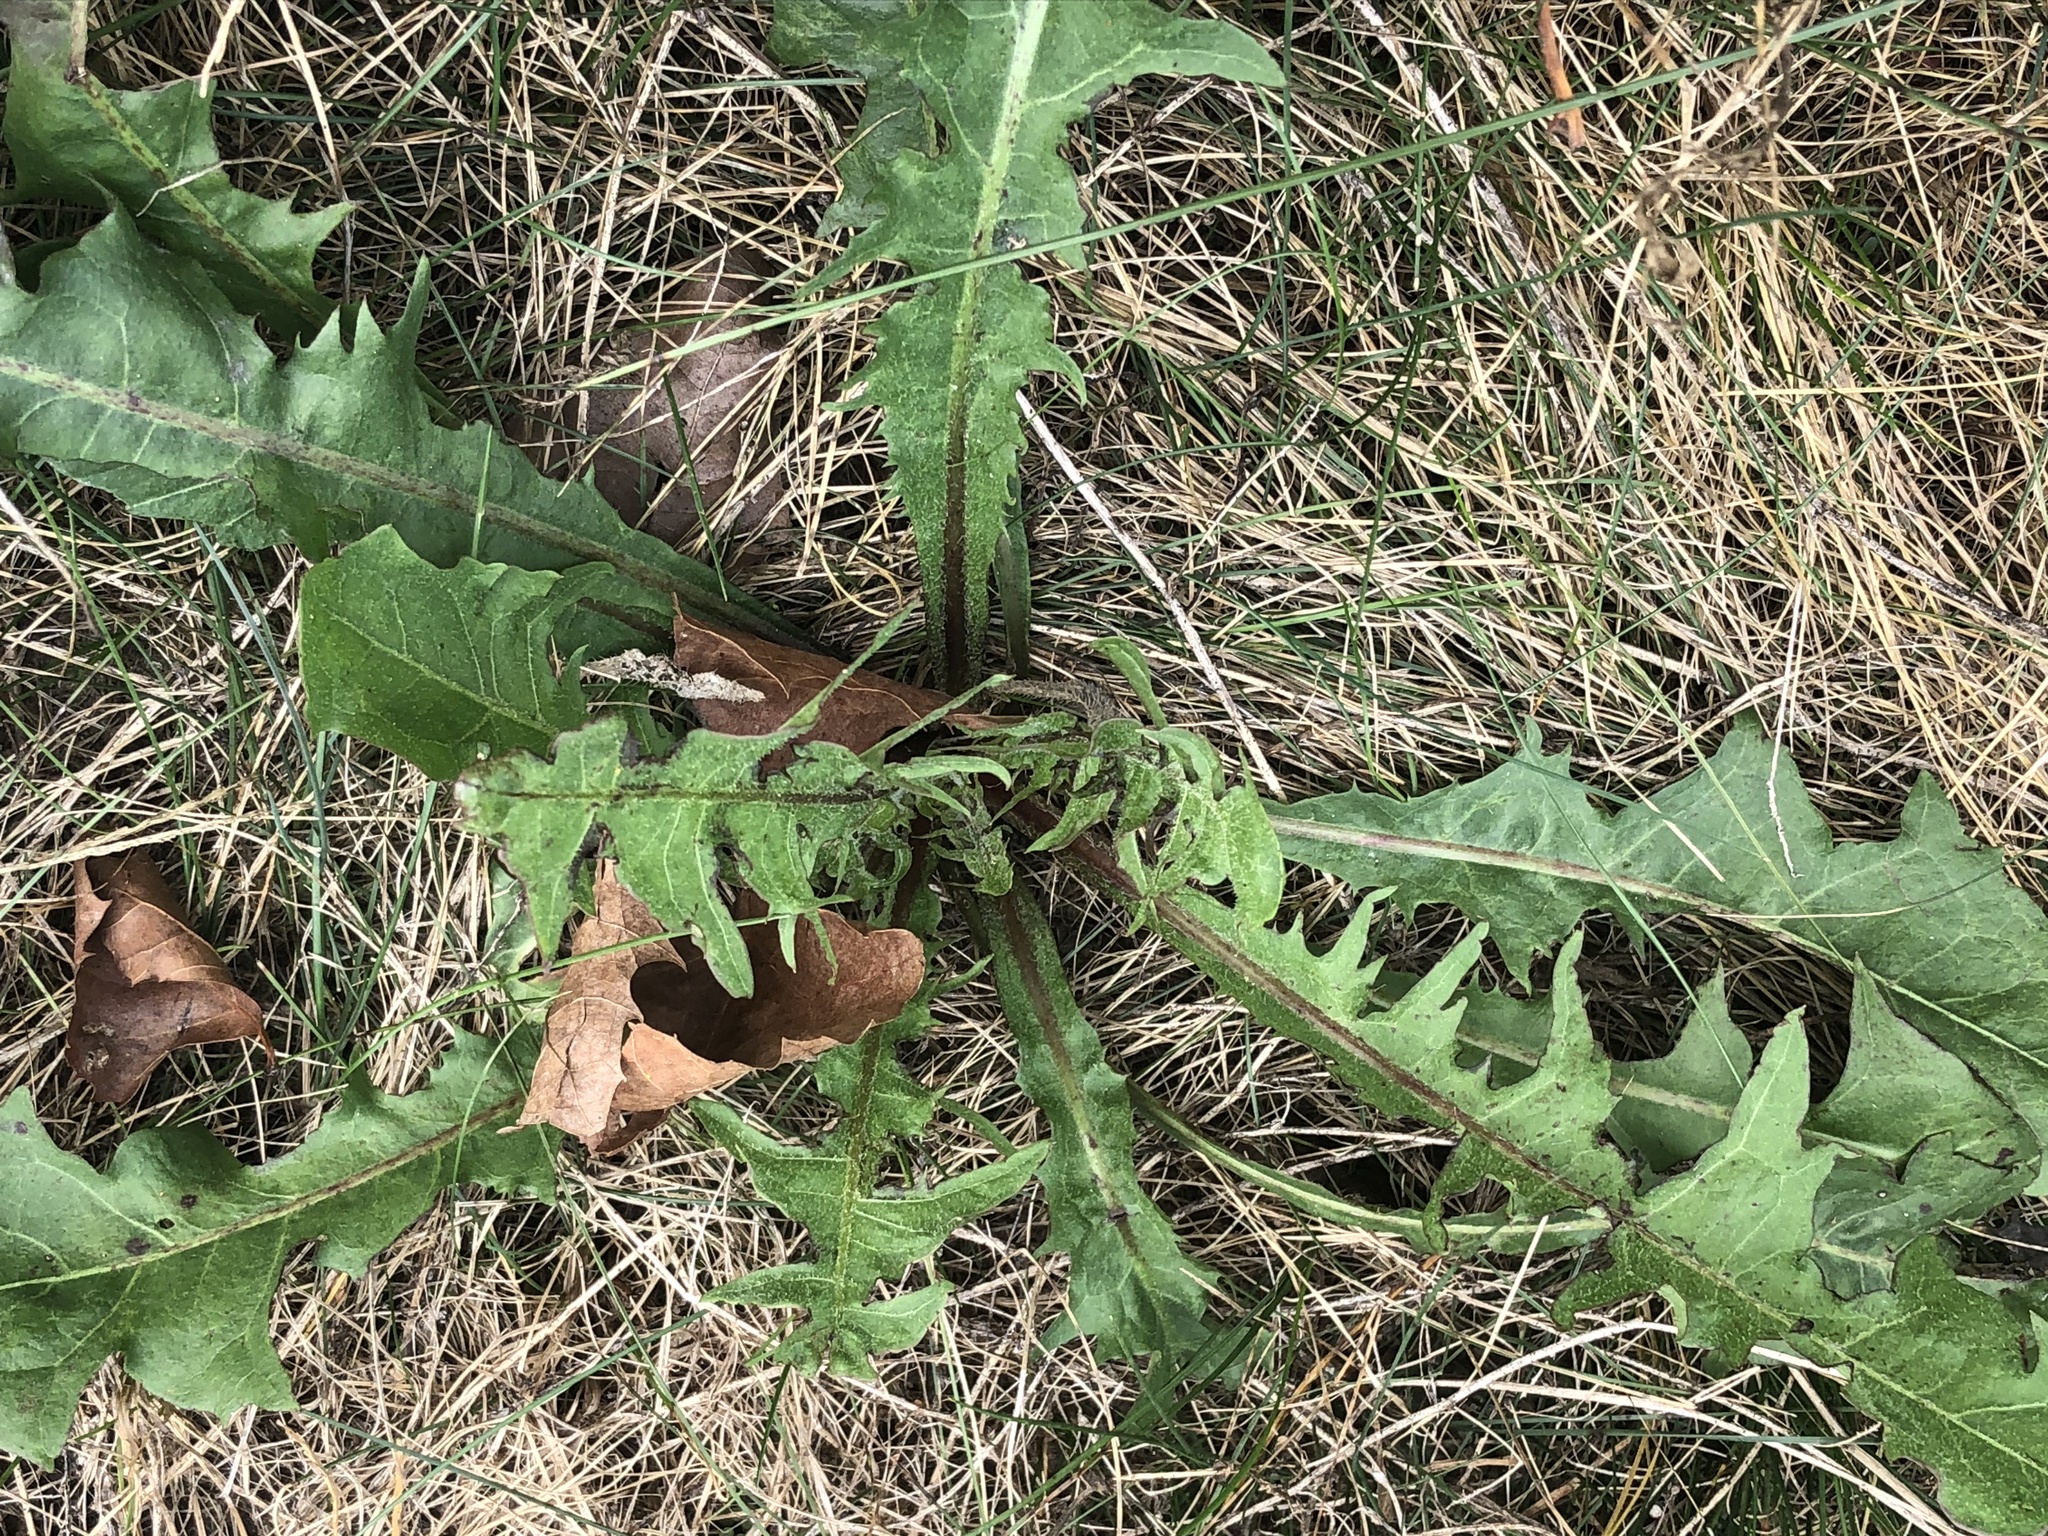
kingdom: Plantae
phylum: Tracheophyta
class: Magnoliopsida
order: Asterales
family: Asteraceae
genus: Taraxacum
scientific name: Taraxacum officinale
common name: Common dandelion
